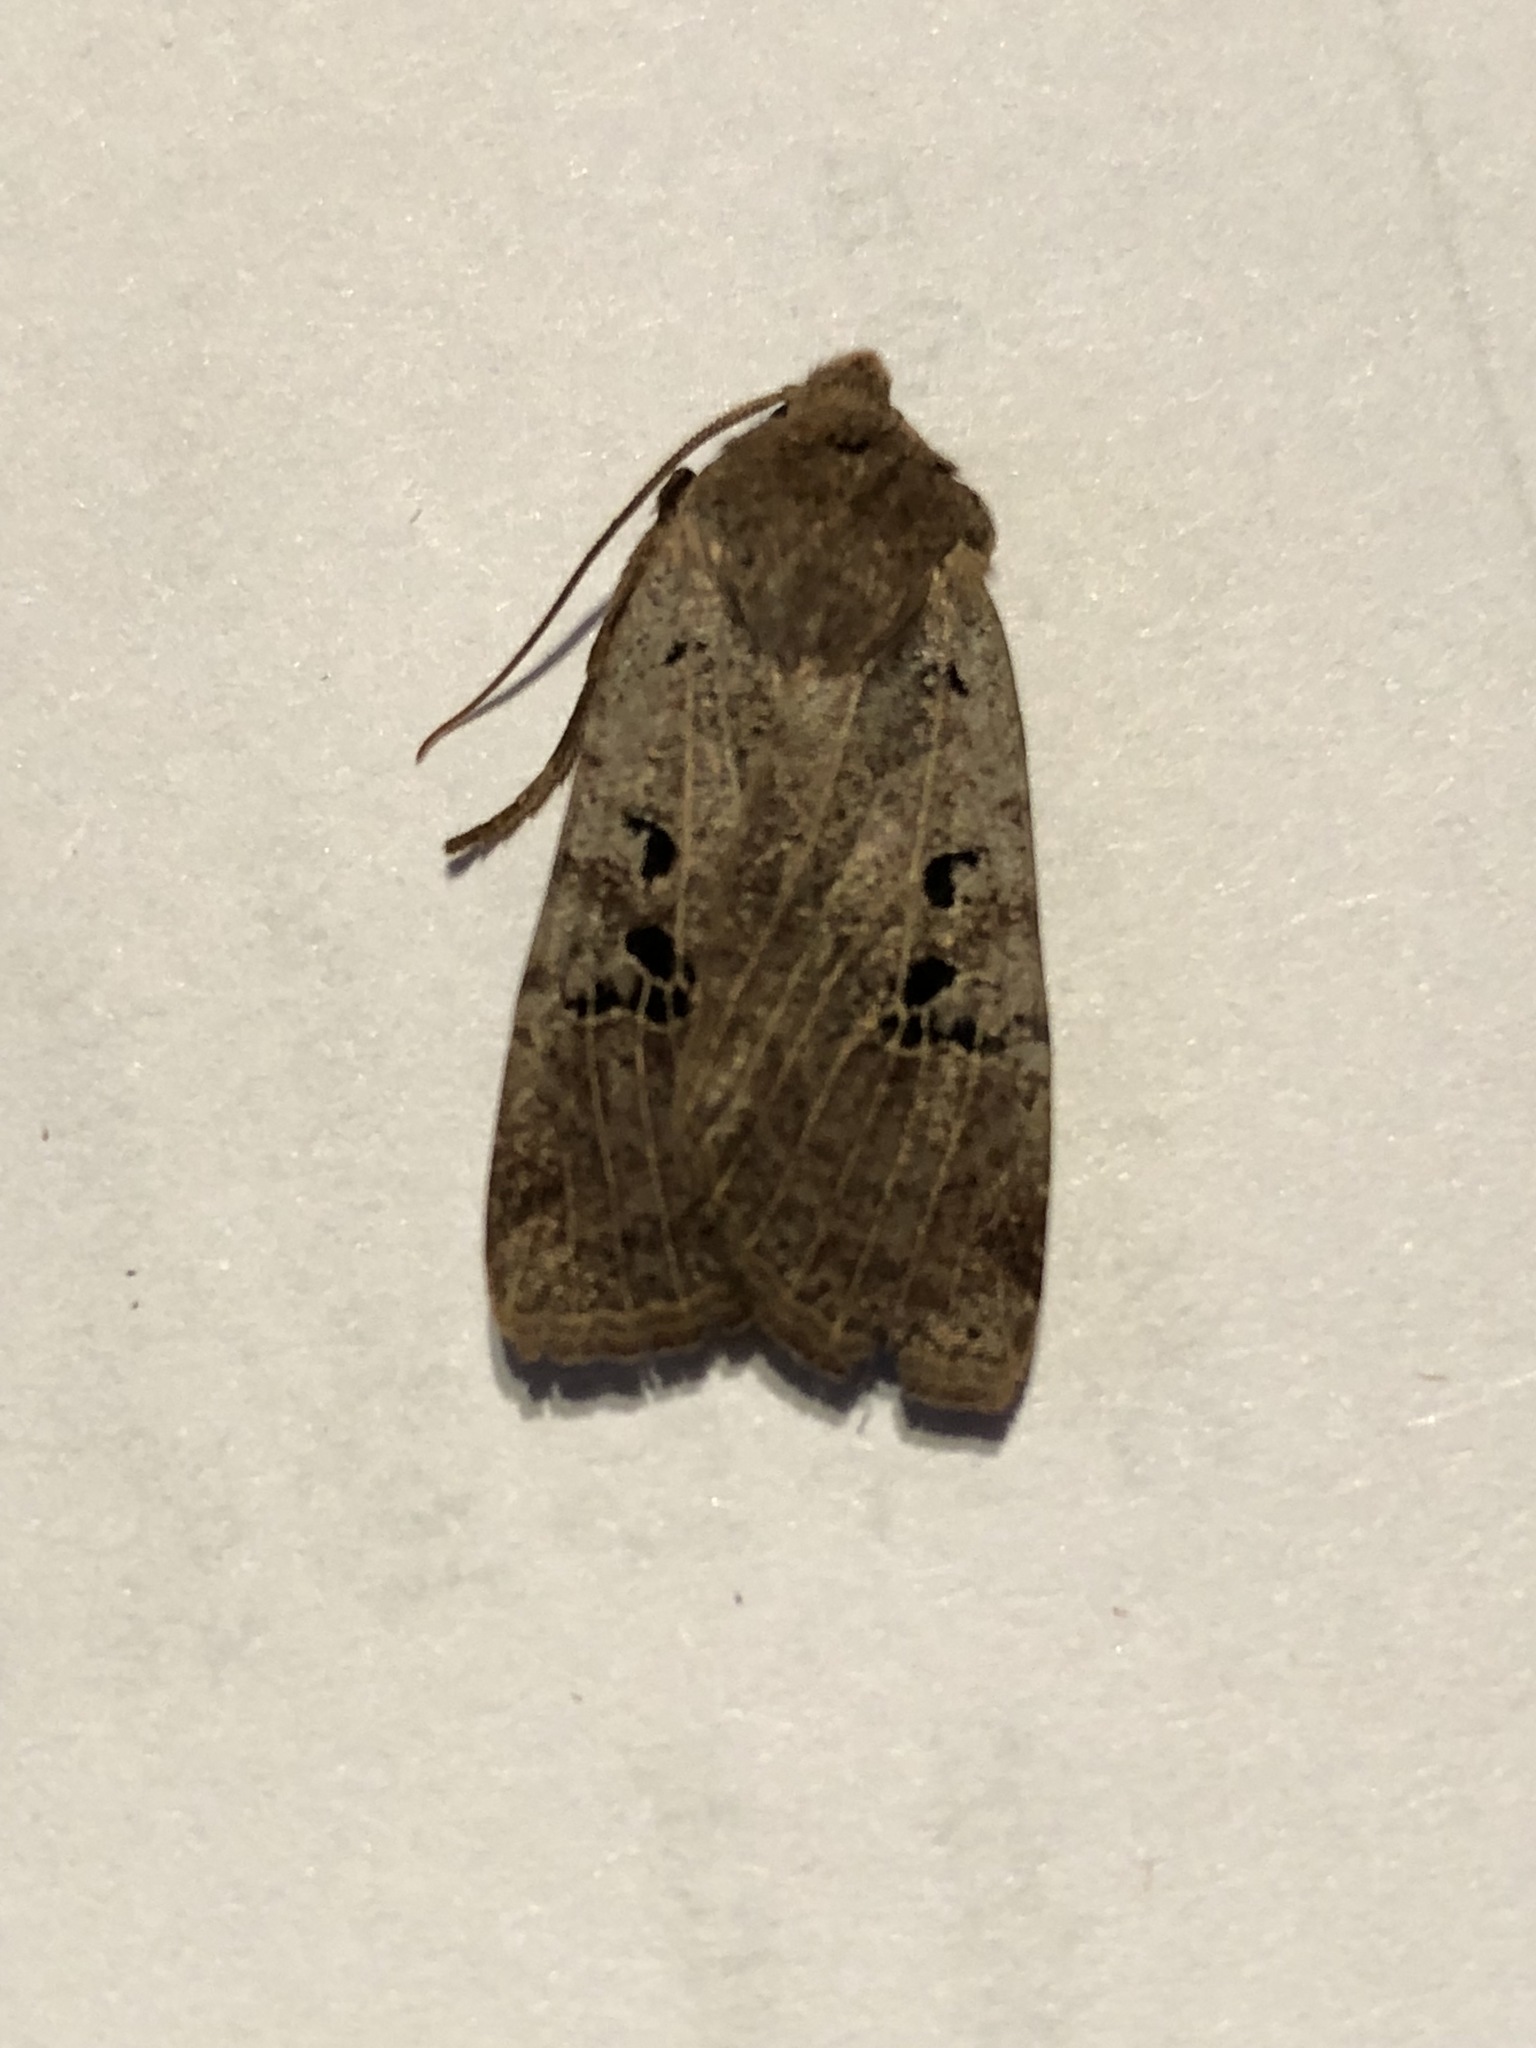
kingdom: Animalia
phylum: Arthropoda
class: Insecta
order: Lepidoptera
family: Noctuidae
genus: Conistra
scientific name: Conistra rubiginosa
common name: Black-spotted chestnut
